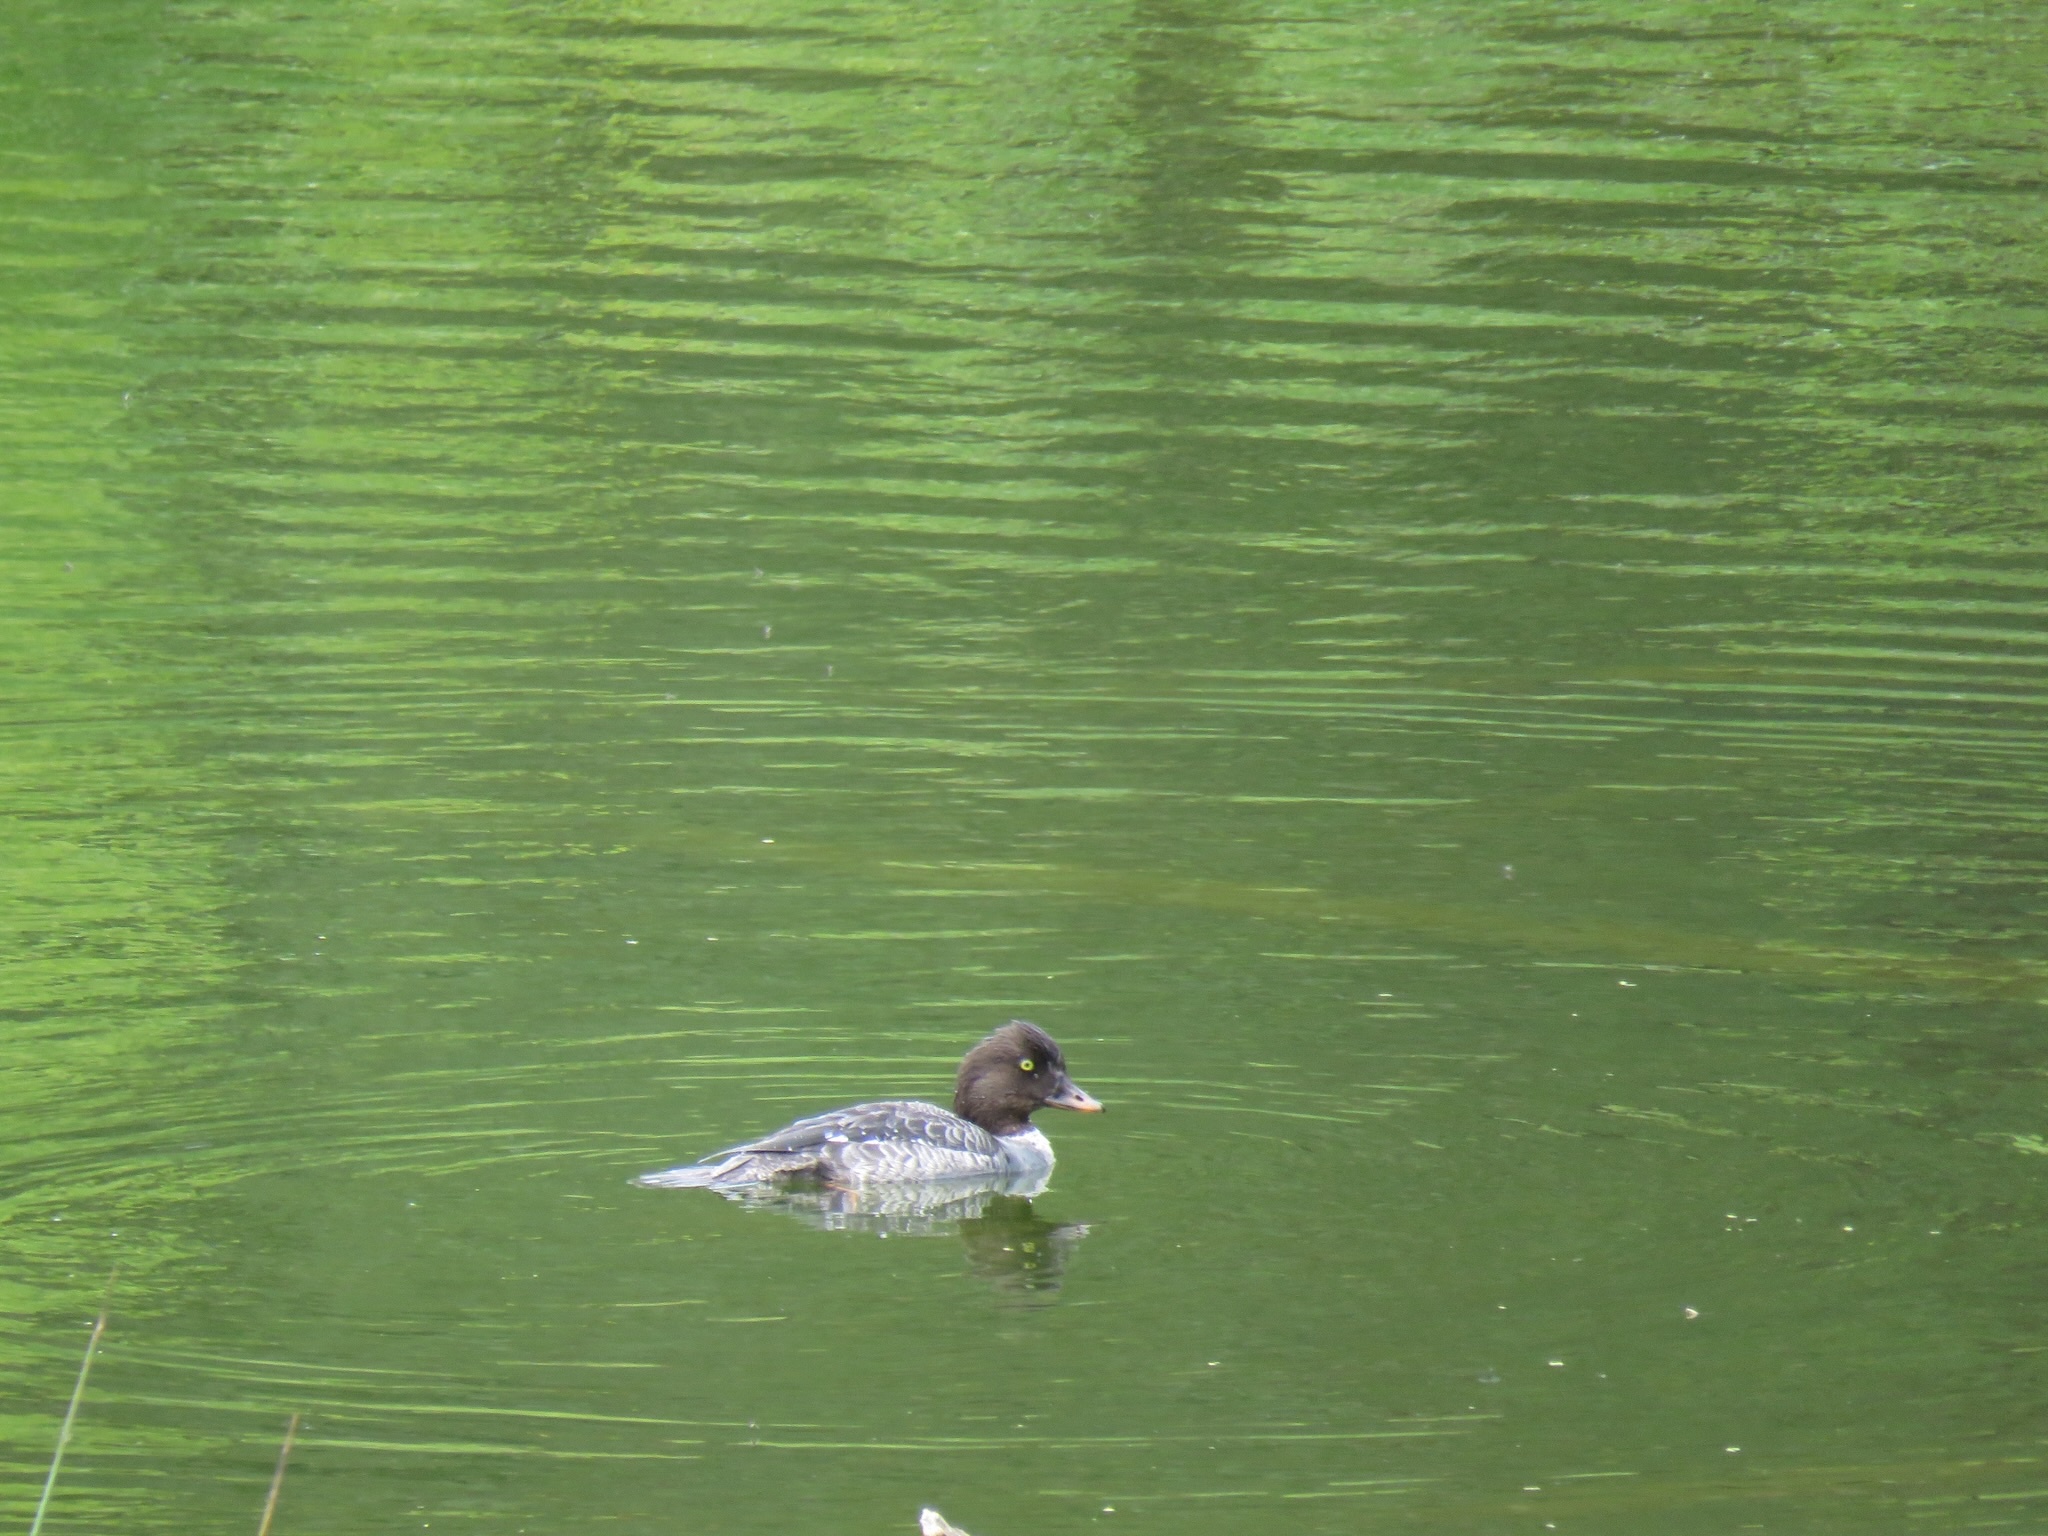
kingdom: Animalia
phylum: Chordata
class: Aves
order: Anseriformes
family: Anatidae
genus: Bucephala
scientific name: Bucephala islandica
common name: Barrow's goldeneye
